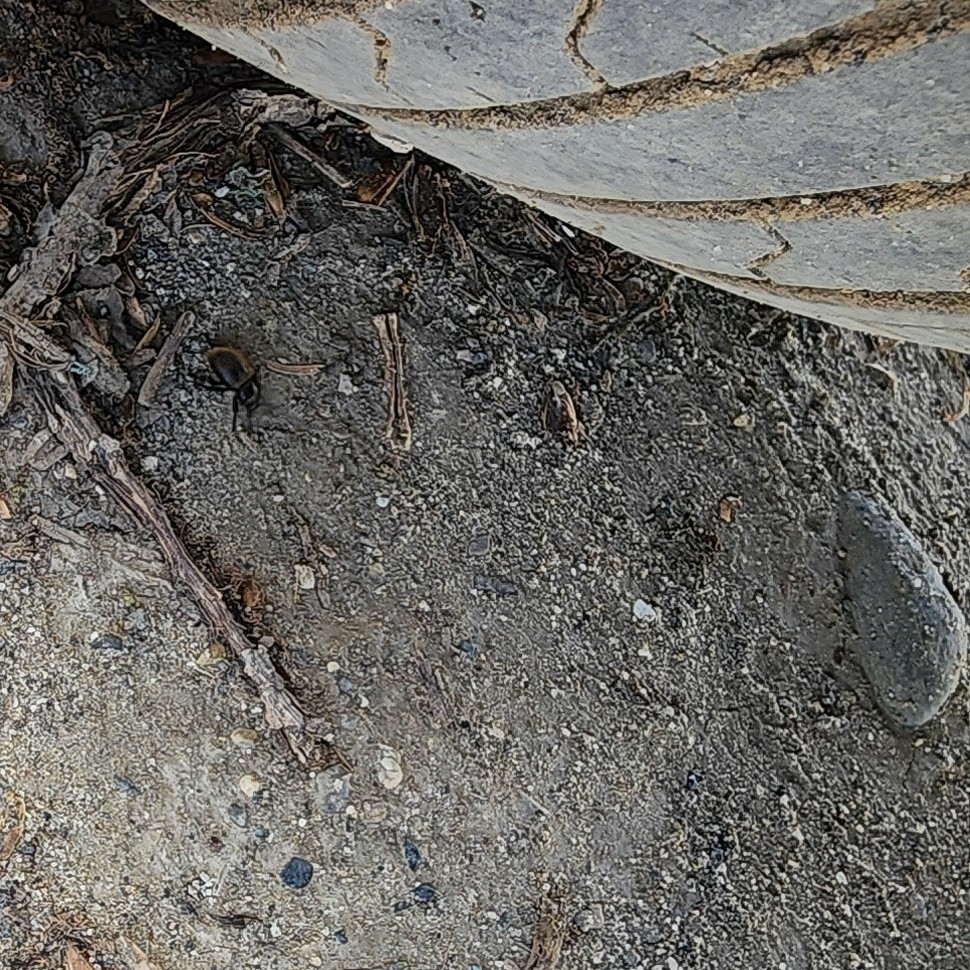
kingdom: Animalia
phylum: Arthropoda
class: Insecta
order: Coleoptera
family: Tenebrionidae
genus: Eleodes
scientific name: Eleodes osculans
